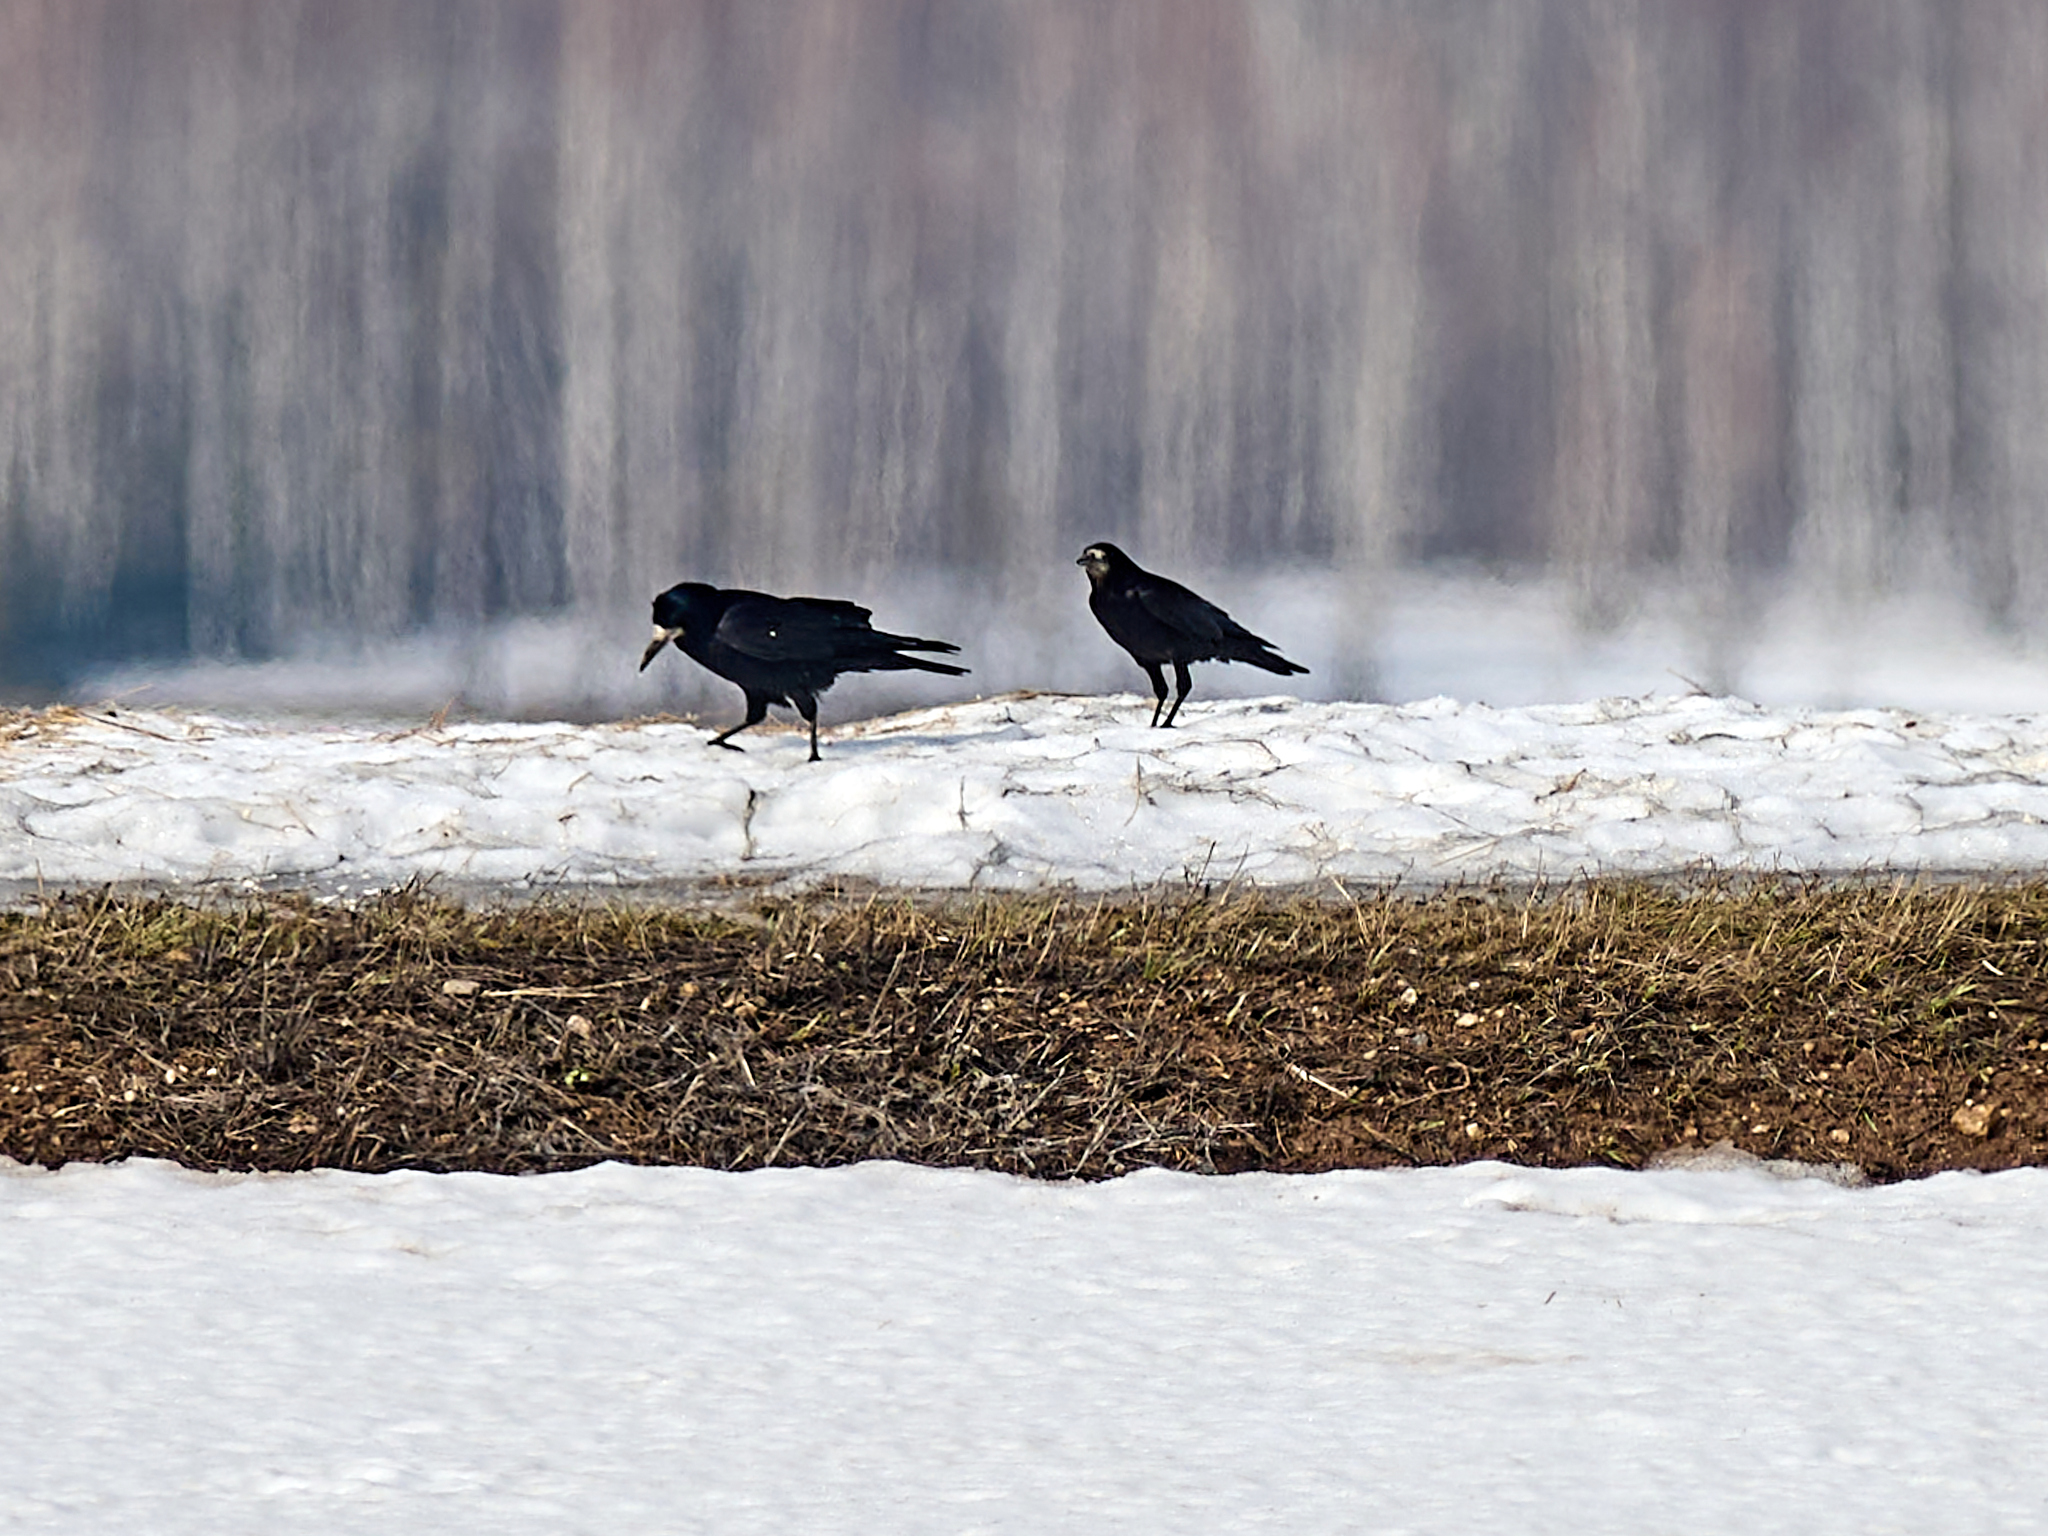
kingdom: Animalia
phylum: Chordata
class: Aves
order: Passeriformes
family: Corvidae
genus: Corvus
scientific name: Corvus frugilegus
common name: Rook
